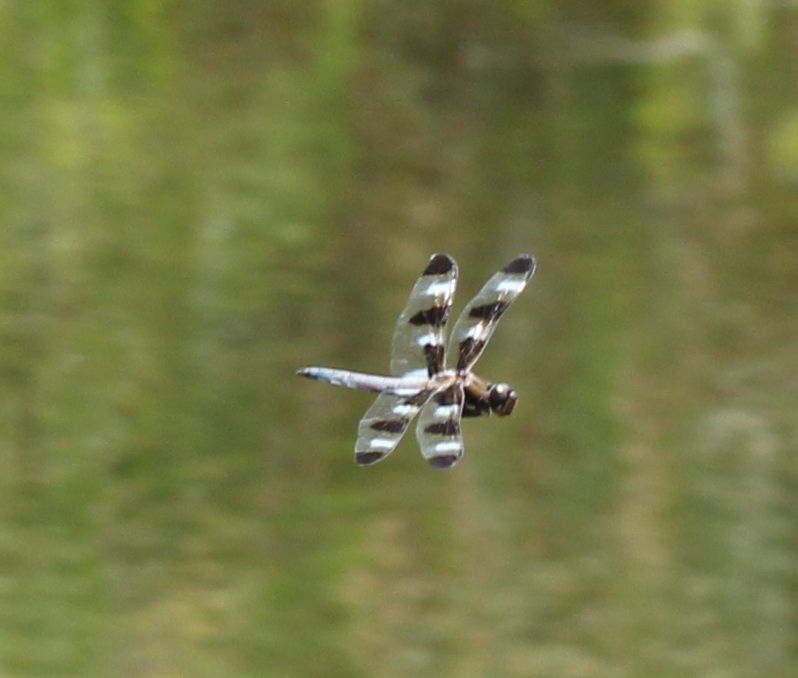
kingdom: Animalia
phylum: Arthropoda
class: Insecta
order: Odonata
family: Libellulidae
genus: Libellula
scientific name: Libellula pulchella
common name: Twelve-spotted skimmer
